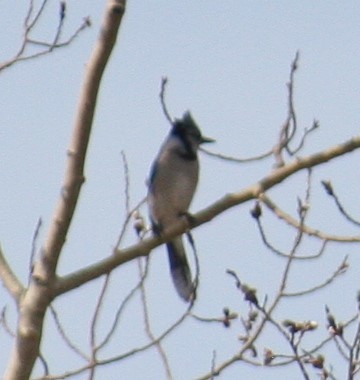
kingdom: Animalia
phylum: Chordata
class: Aves
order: Passeriformes
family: Corvidae
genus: Cyanocitta
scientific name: Cyanocitta cristata
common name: Blue jay
